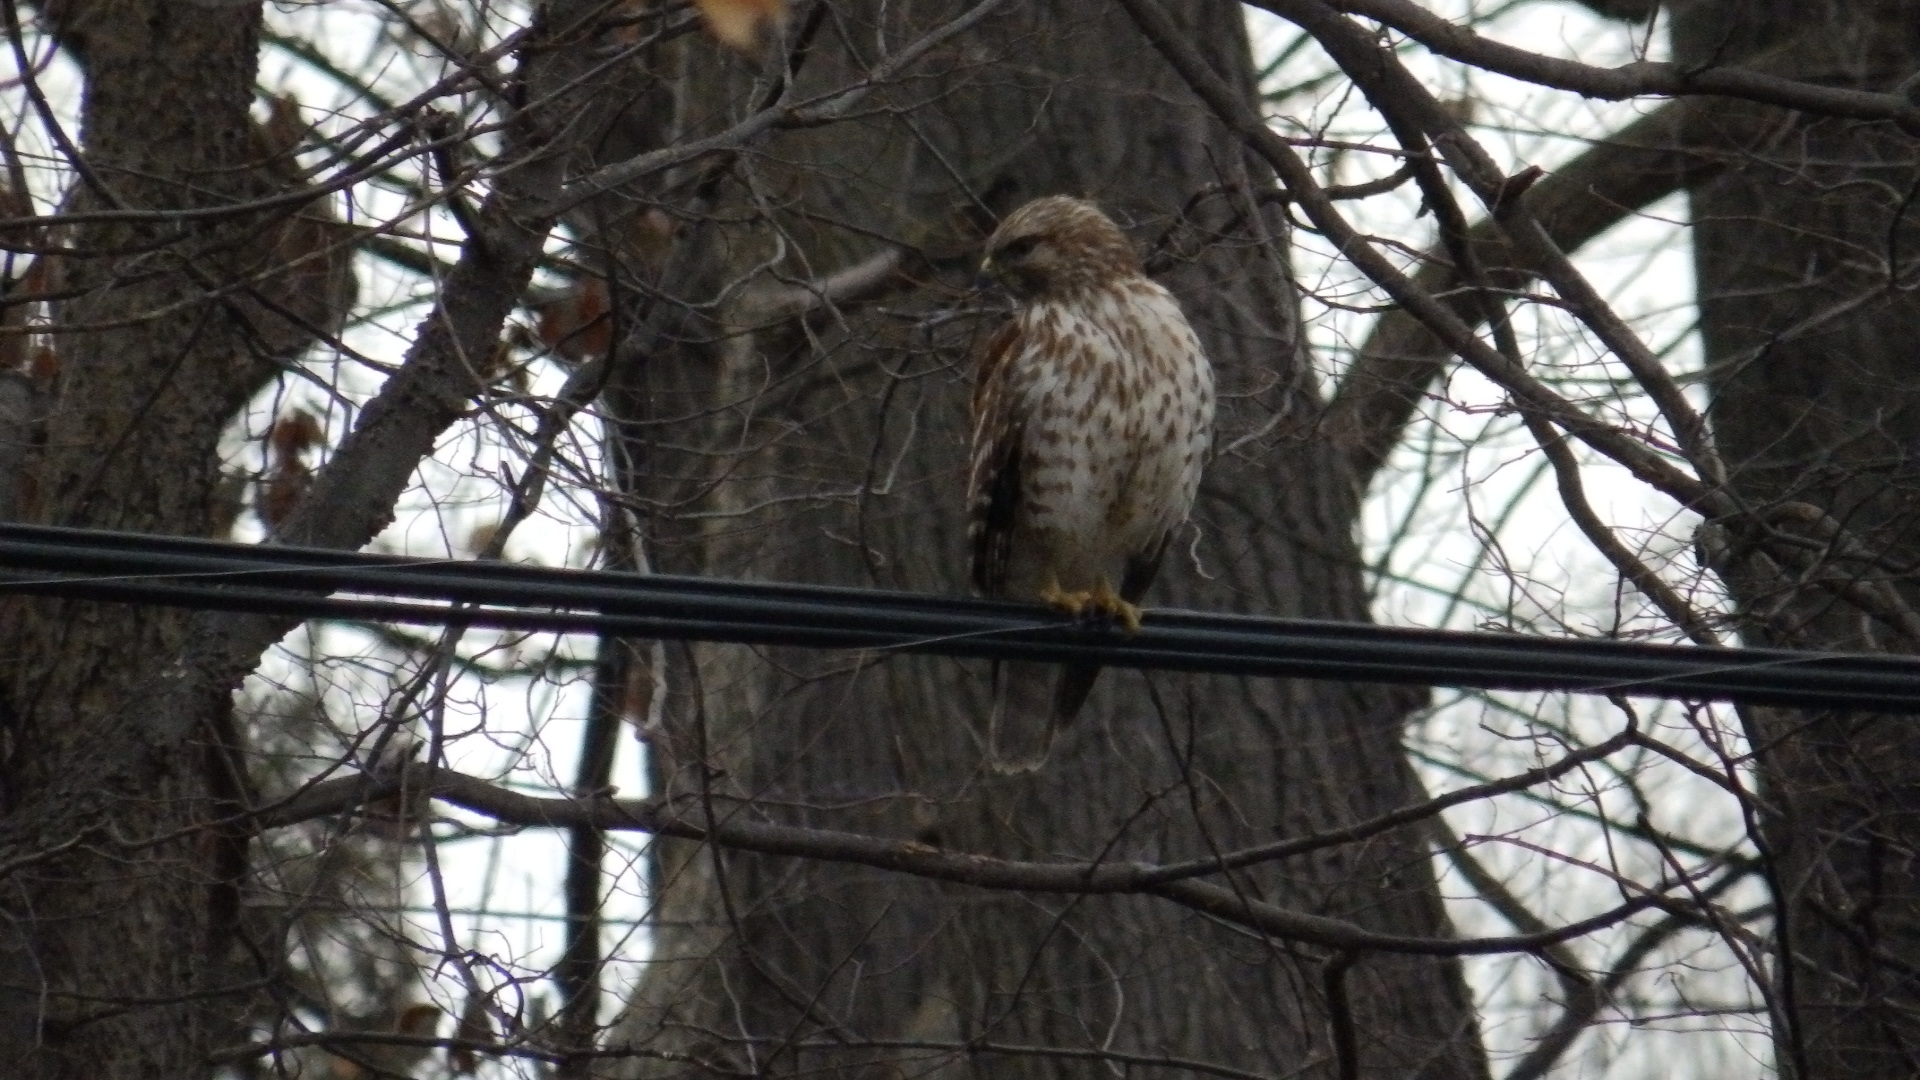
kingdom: Animalia
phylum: Chordata
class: Aves
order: Accipitriformes
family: Accipitridae
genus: Buteo
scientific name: Buteo lineatus
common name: Red-shouldered hawk
